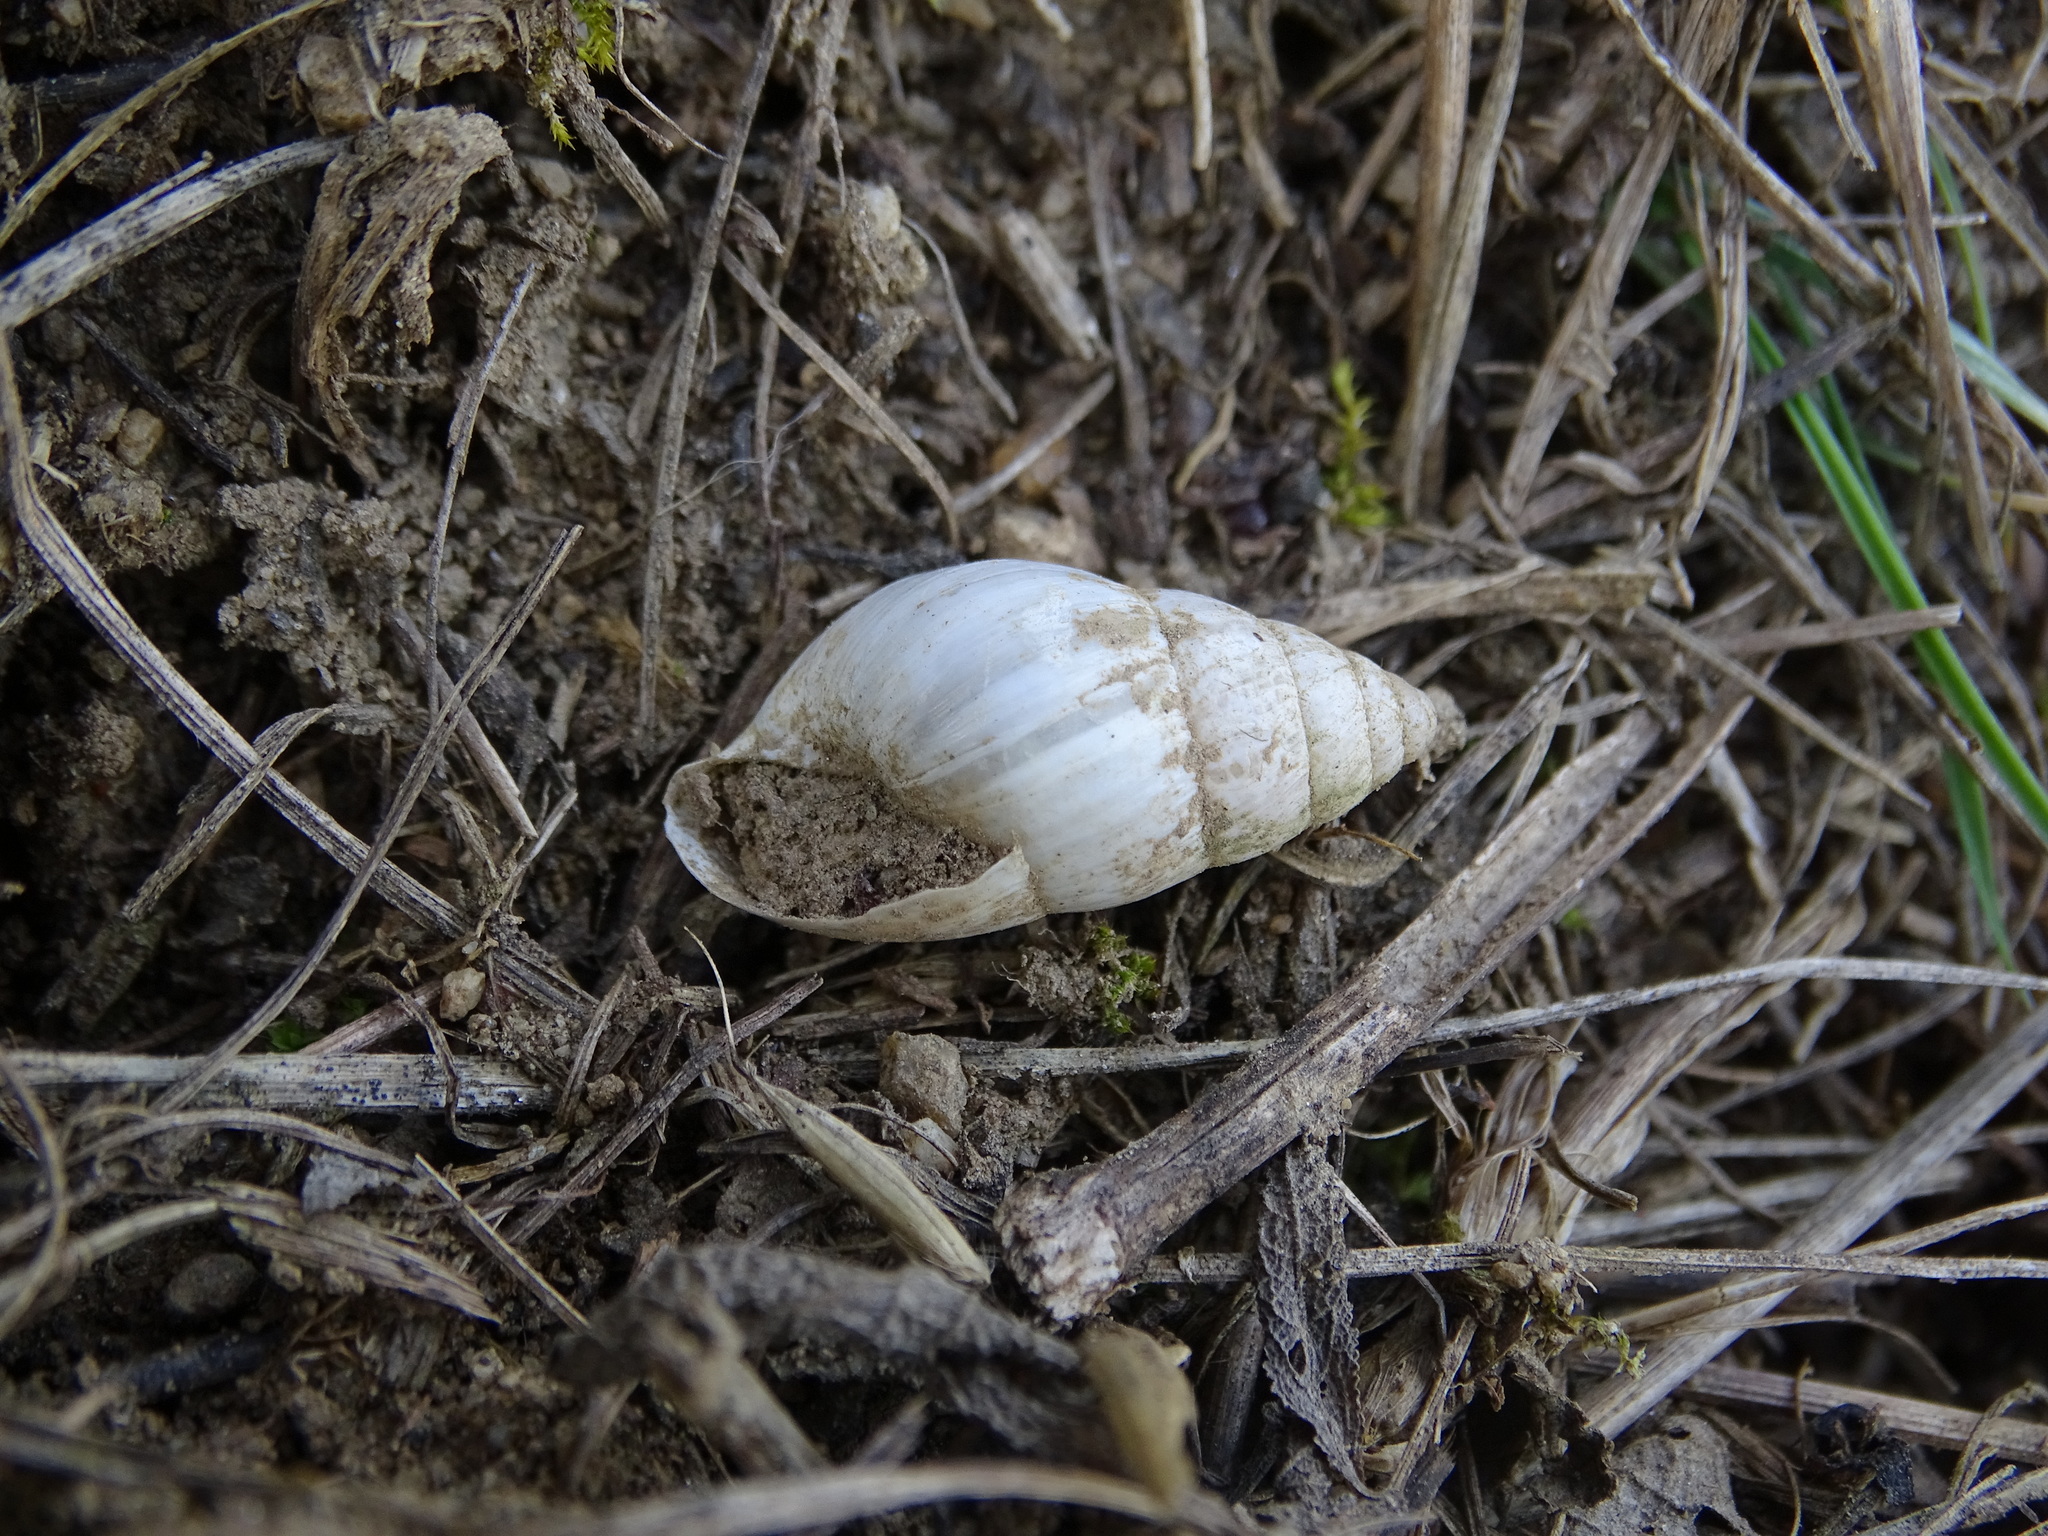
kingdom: Animalia
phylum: Mollusca
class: Gastropoda
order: Stylommatophora
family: Enidae
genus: Zebrina
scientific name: Zebrina detrita
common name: Large bulin
